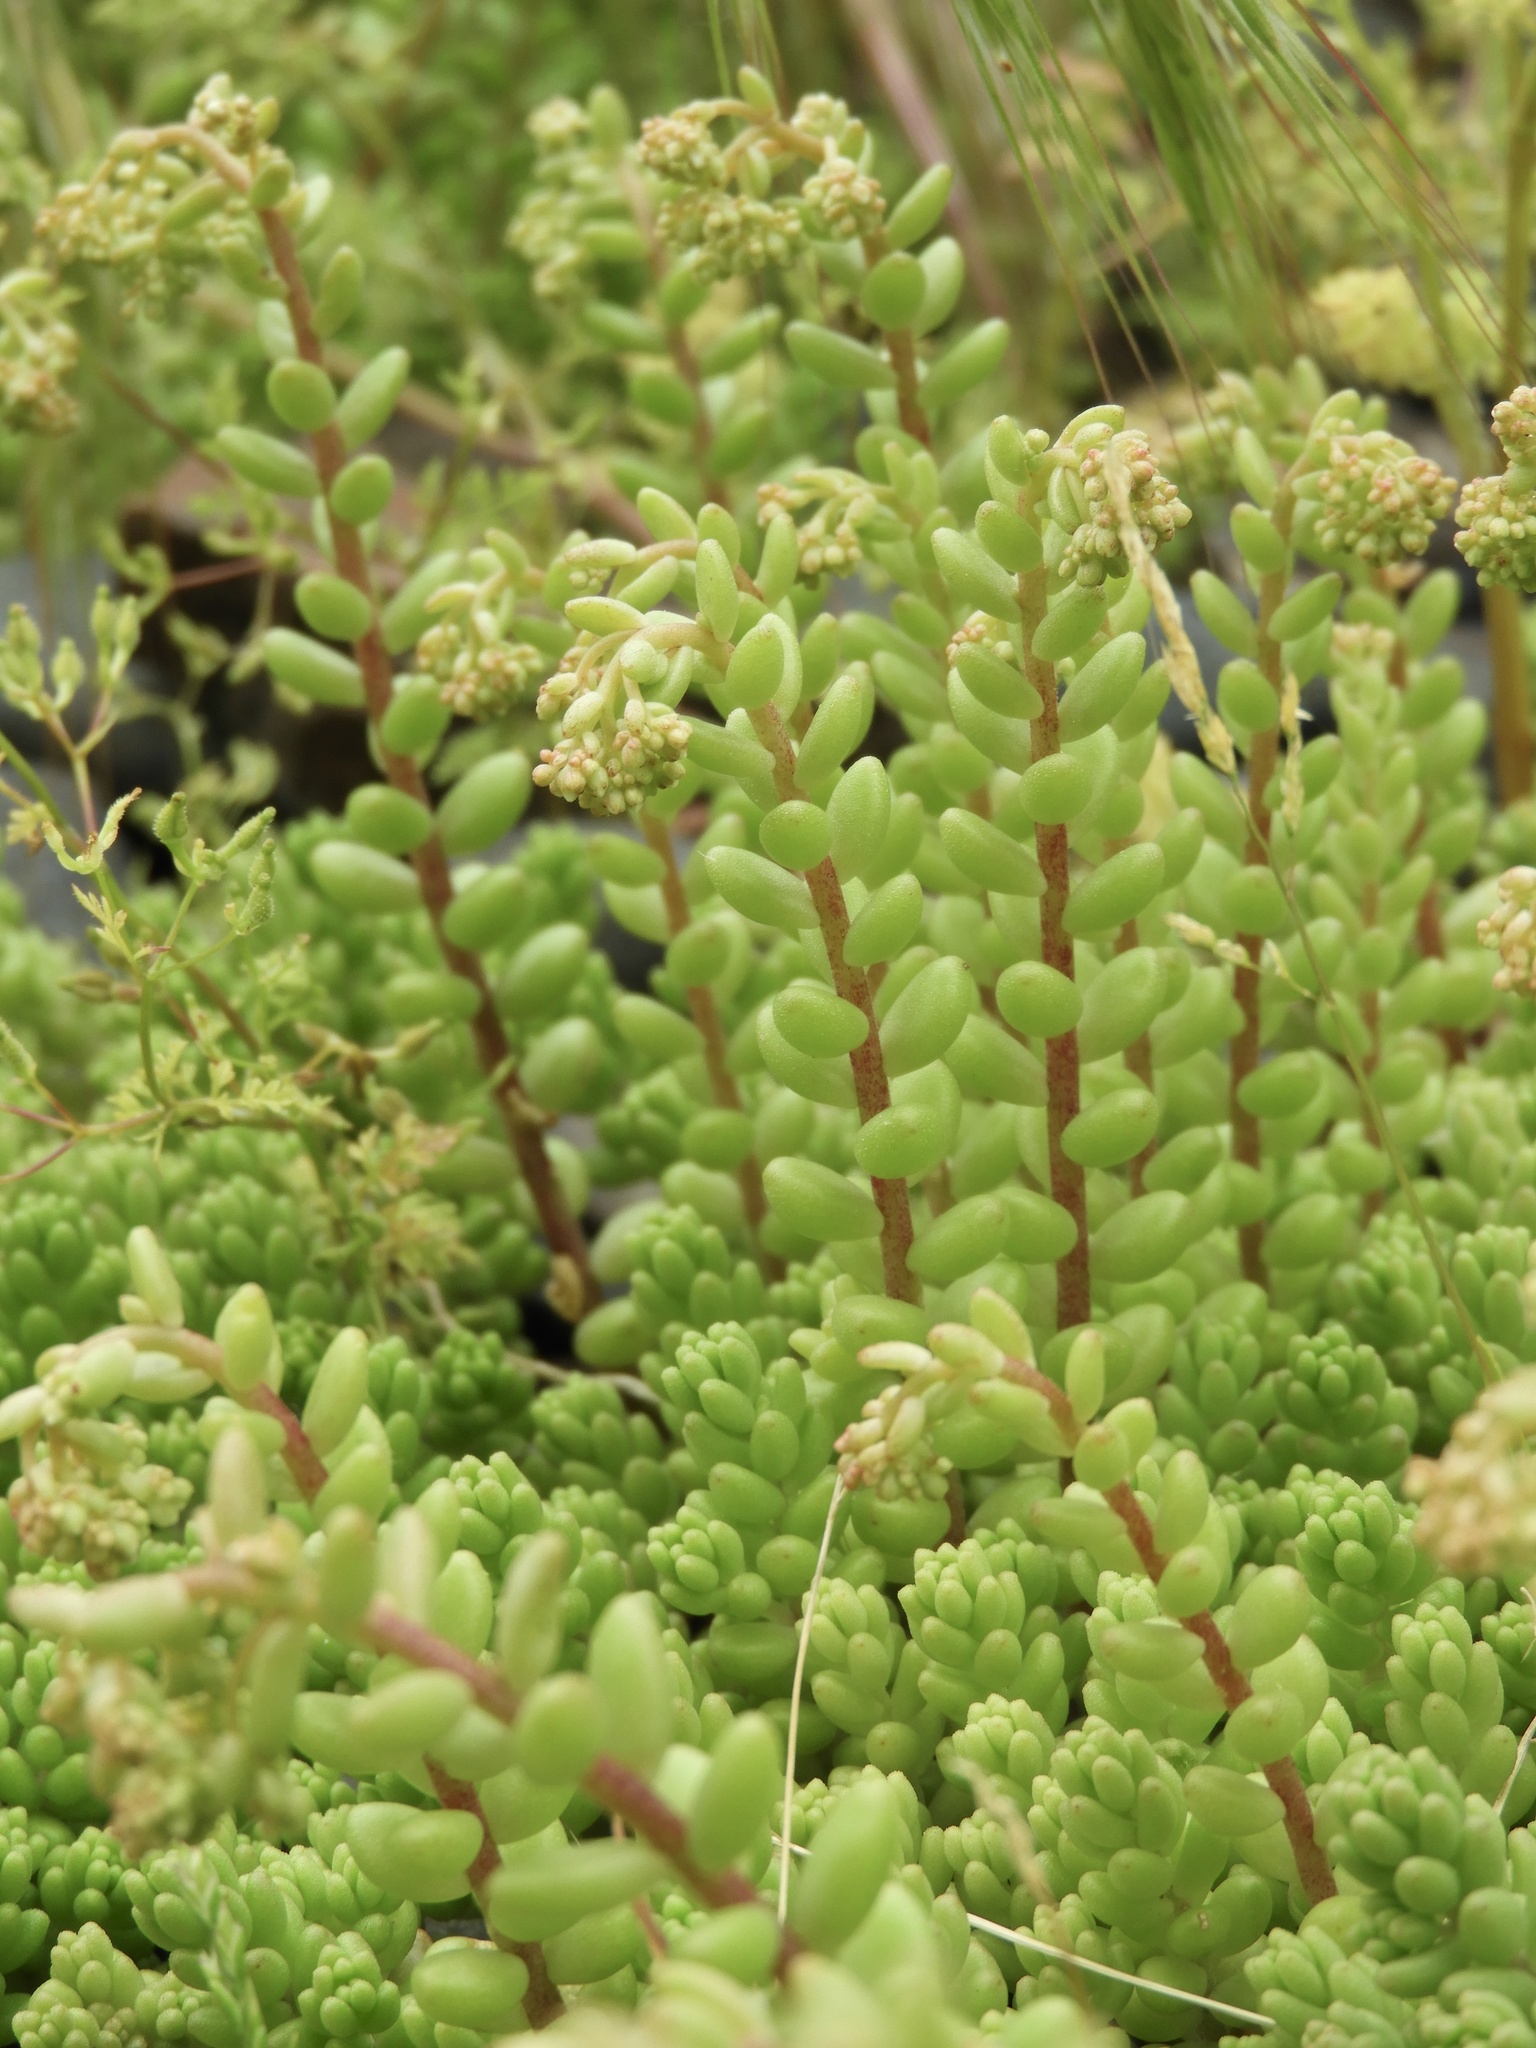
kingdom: Plantae
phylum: Tracheophyta
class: Magnoliopsida
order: Saxifragales
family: Crassulaceae
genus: Sedum
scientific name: Sedum album
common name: White stonecrop
